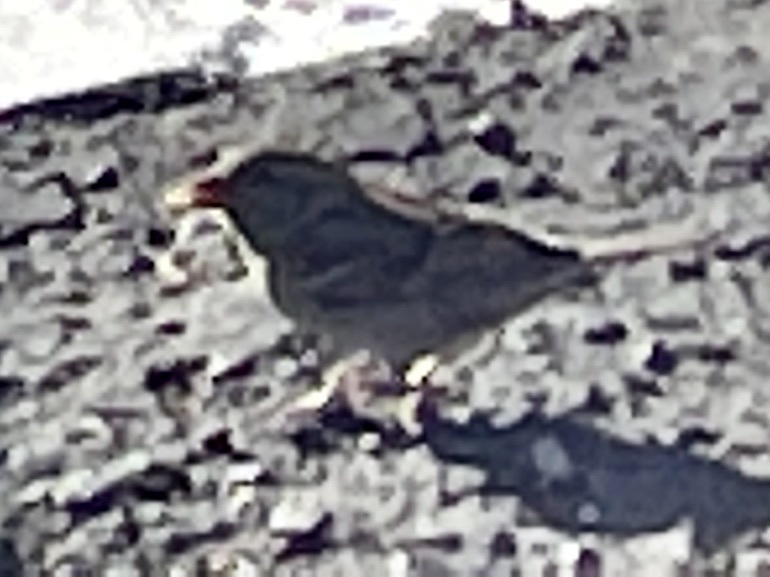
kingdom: Animalia
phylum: Chordata
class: Aves
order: Passeriformes
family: Passerellidae
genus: Zonotrichia
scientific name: Zonotrichia leucophrys
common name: White-crowned sparrow
